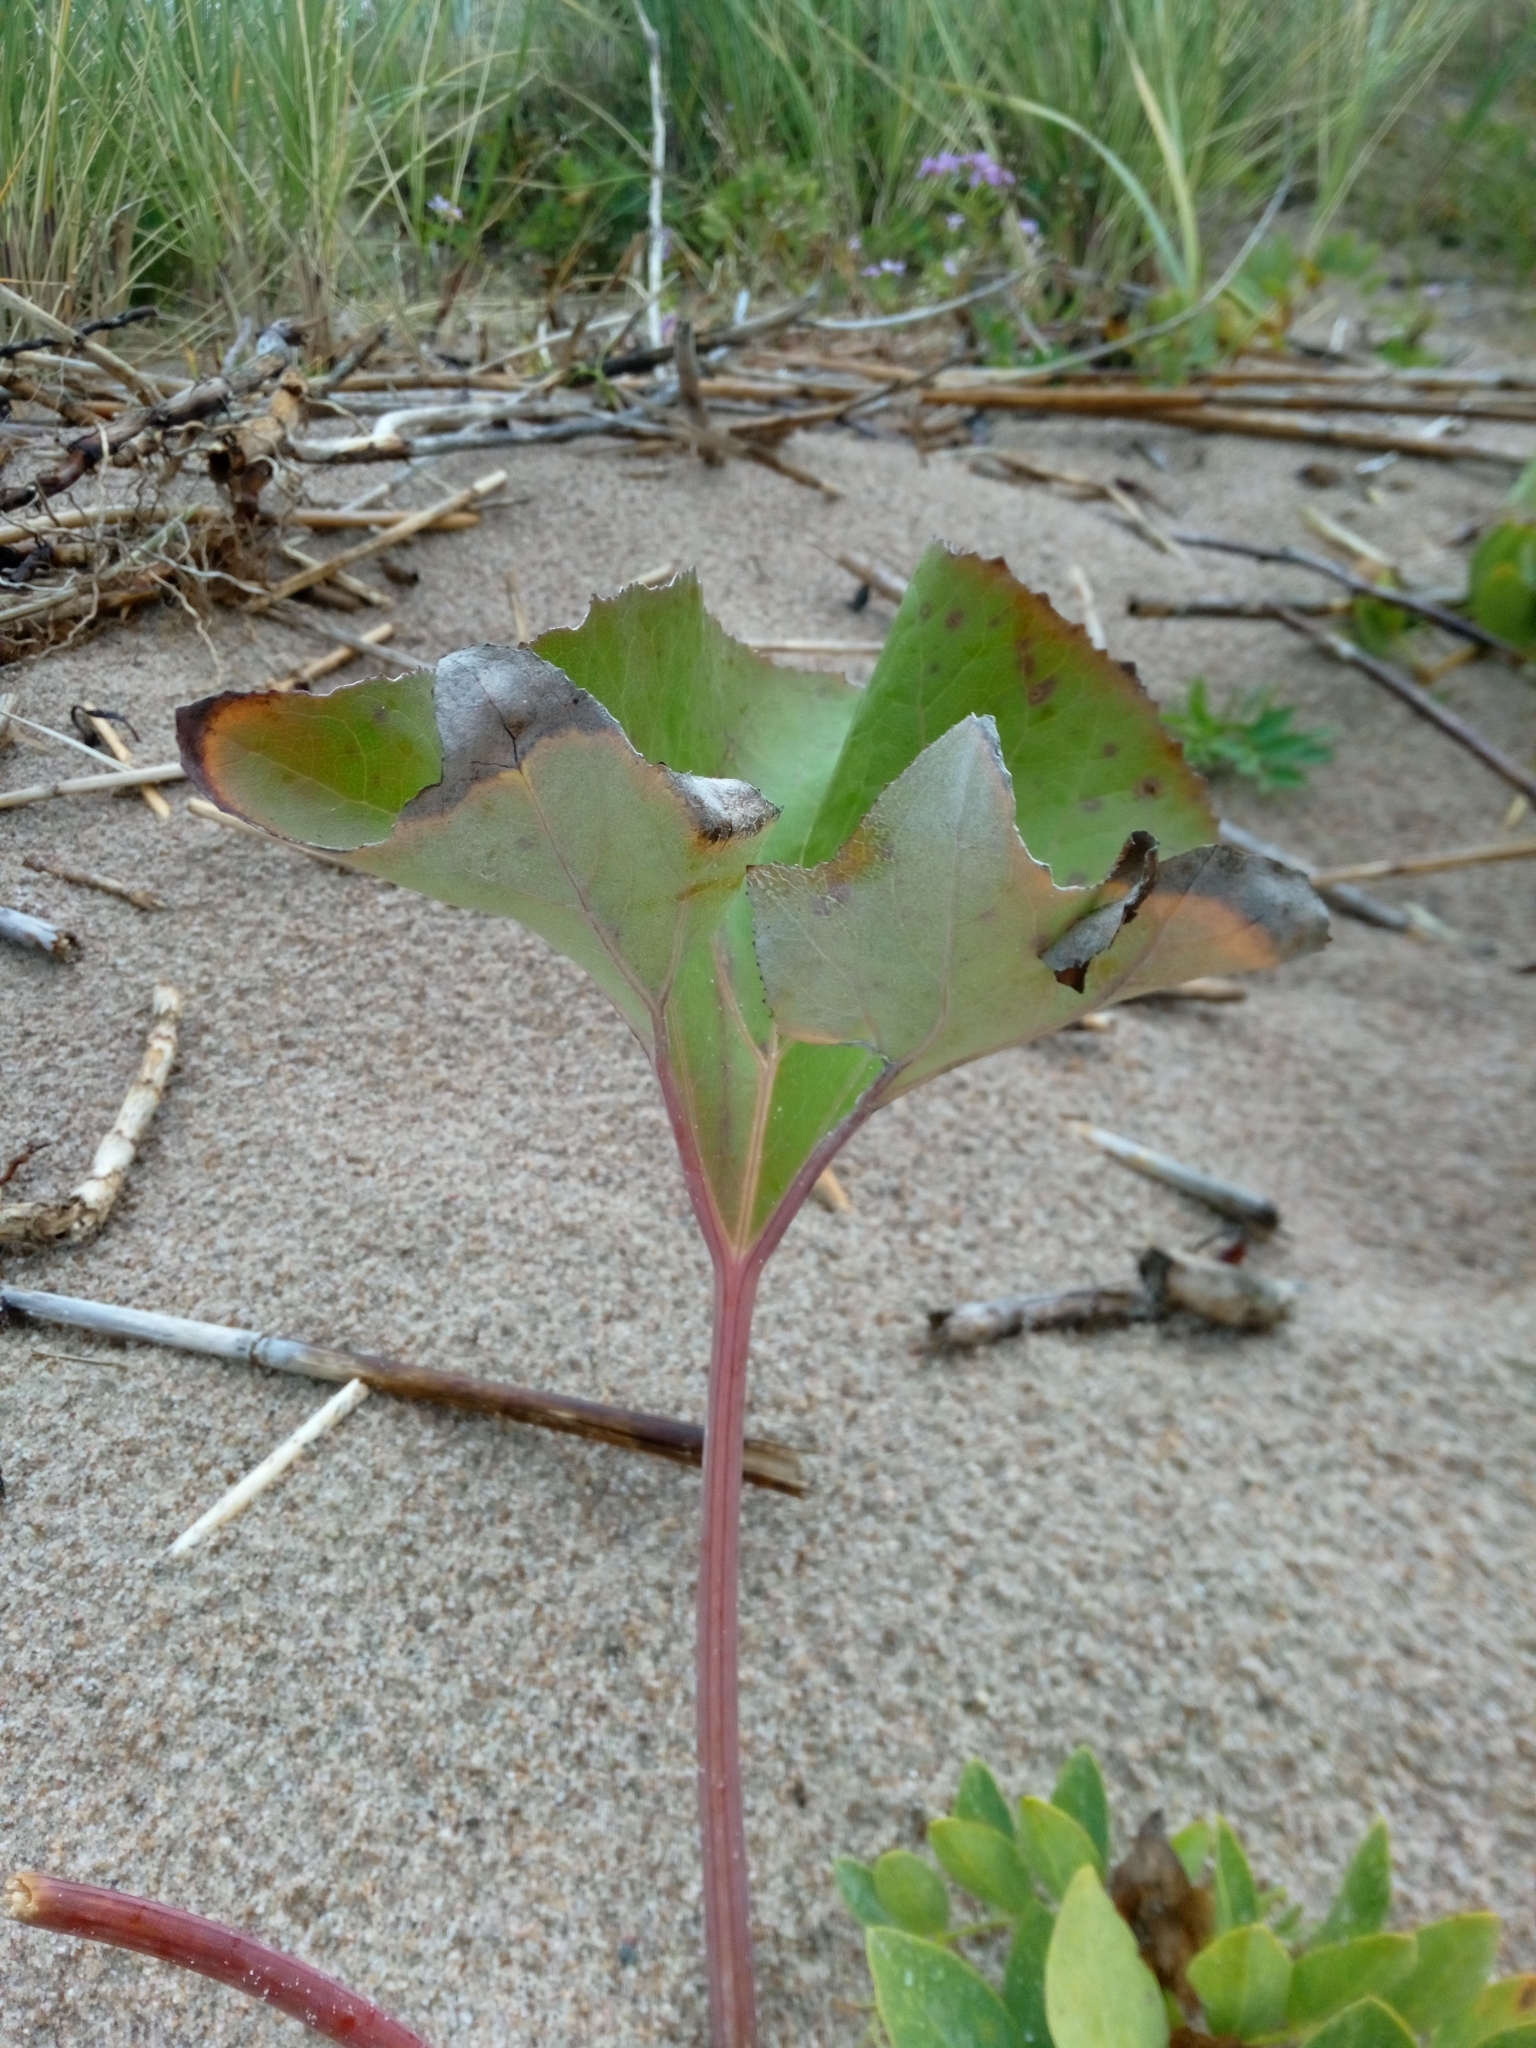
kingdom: Plantae
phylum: Tracheophyta
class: Magnoliopsida
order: Asterales
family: Asteraceae
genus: Petasites
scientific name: Petasites spurius
